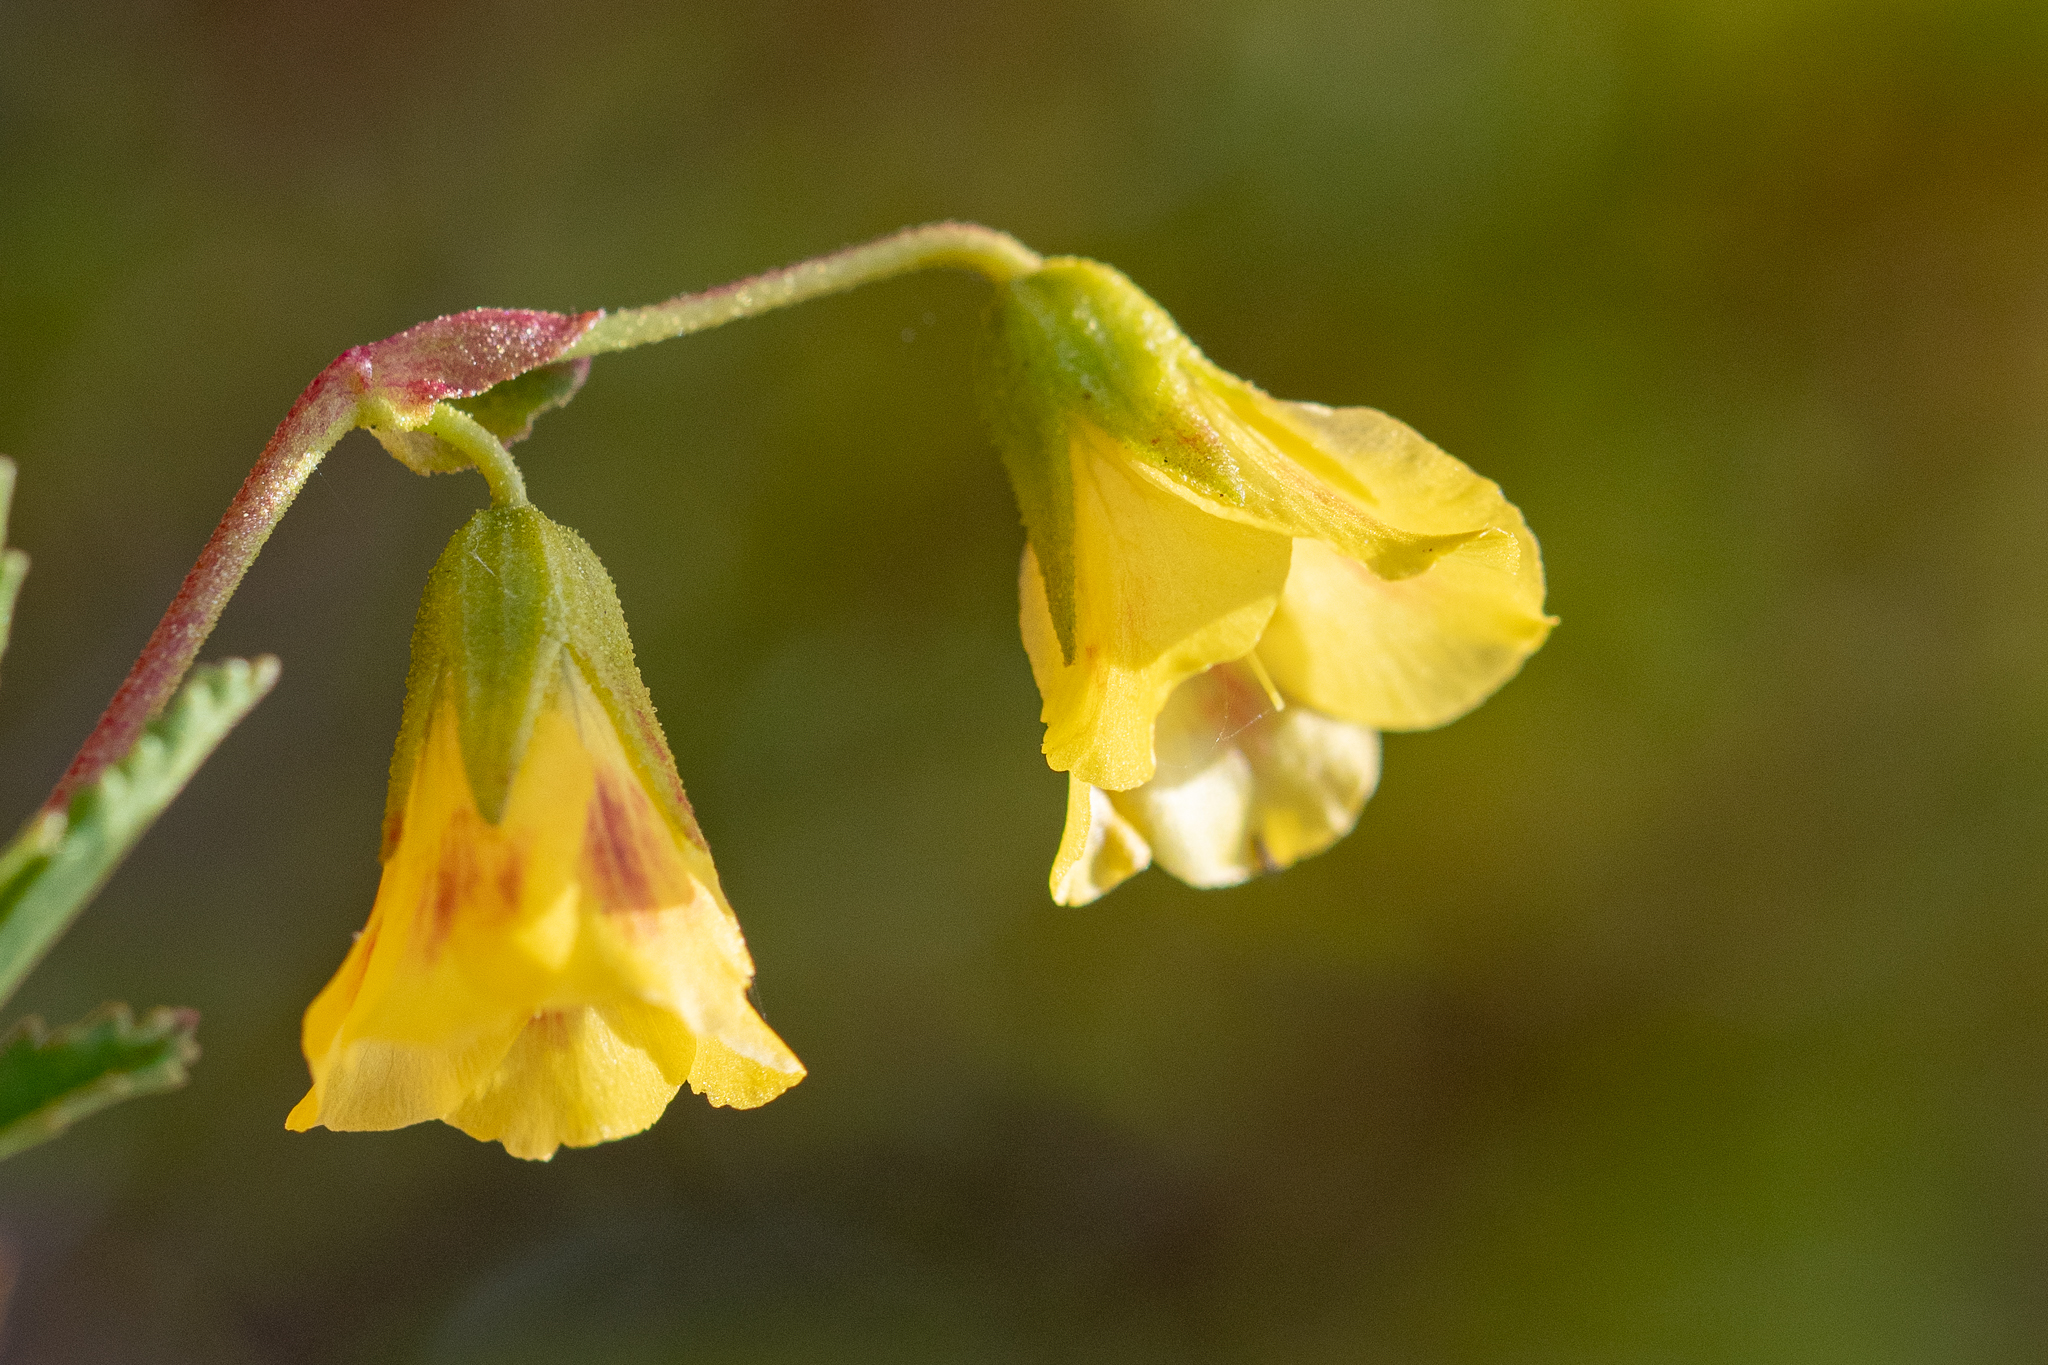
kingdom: Plantae
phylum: Tracheophyta
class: Magnoliopsida
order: Malvales
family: Malvaceae
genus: Hermannia
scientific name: Hermannia saccifera
